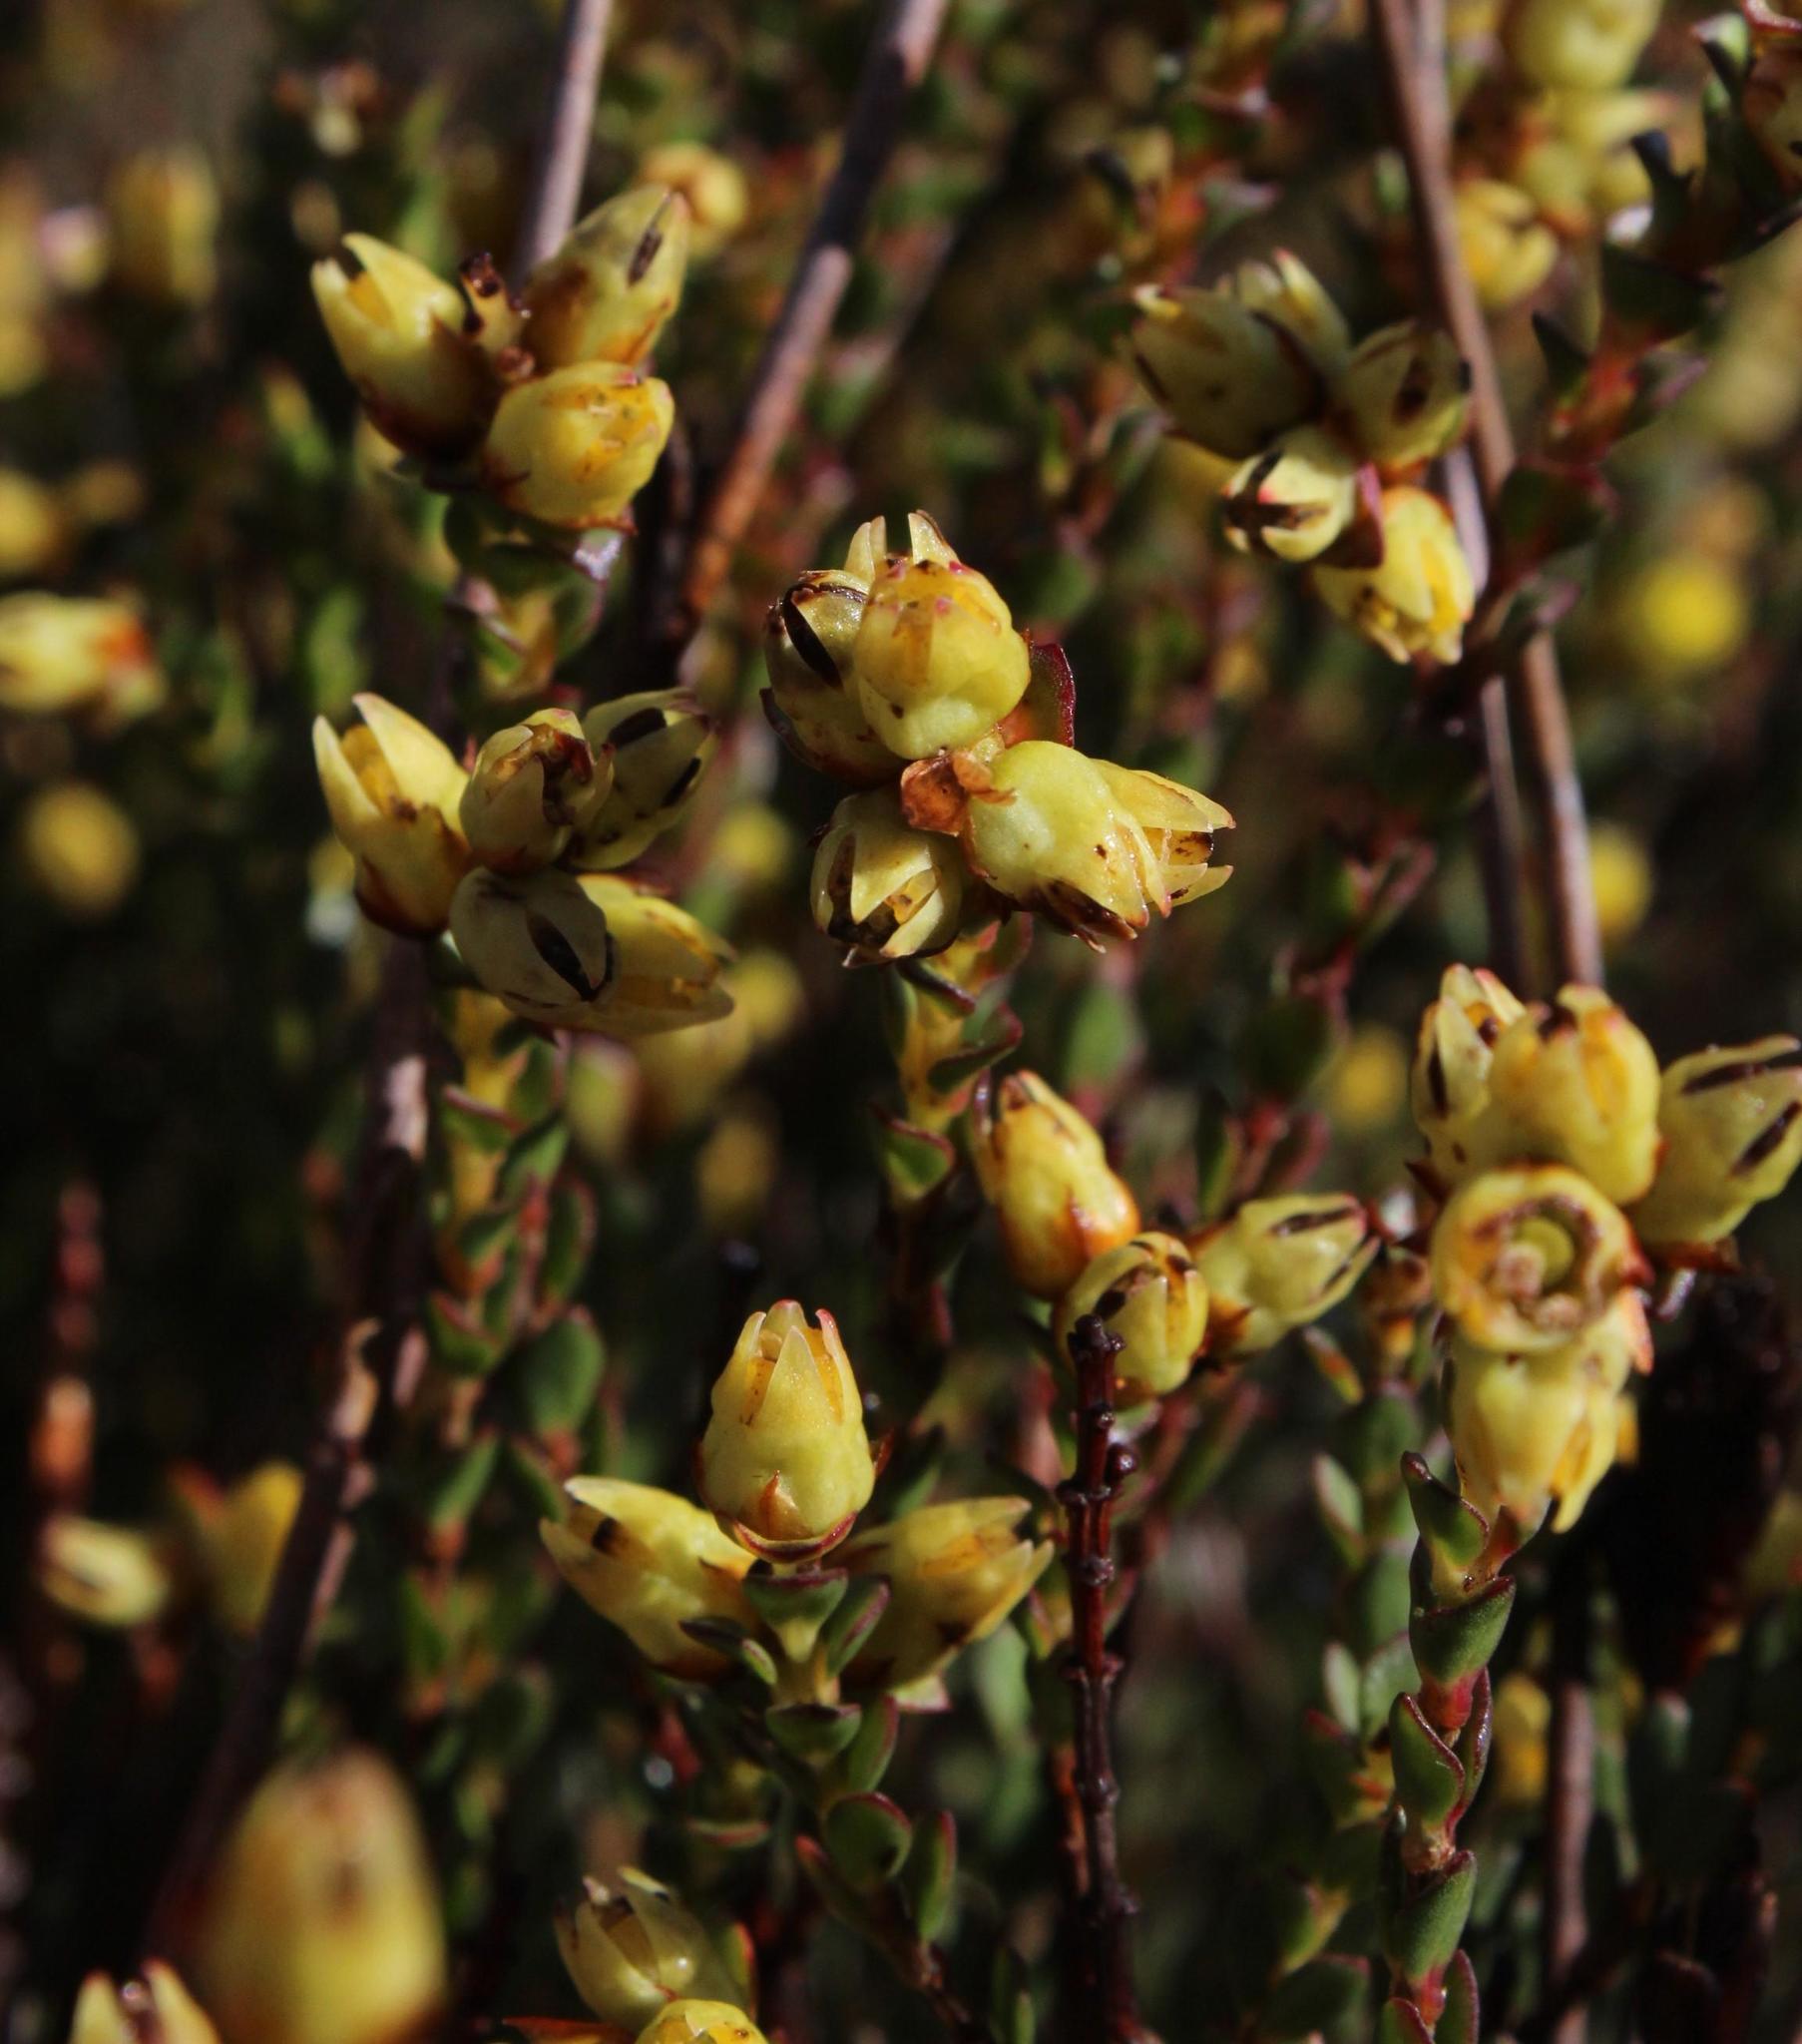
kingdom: Plantae
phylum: Tracheophyta
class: Magnoliopsida
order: Myrtales
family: Penaeaceae
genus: Stylapterus
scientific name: Stylapterus fruticulosus
